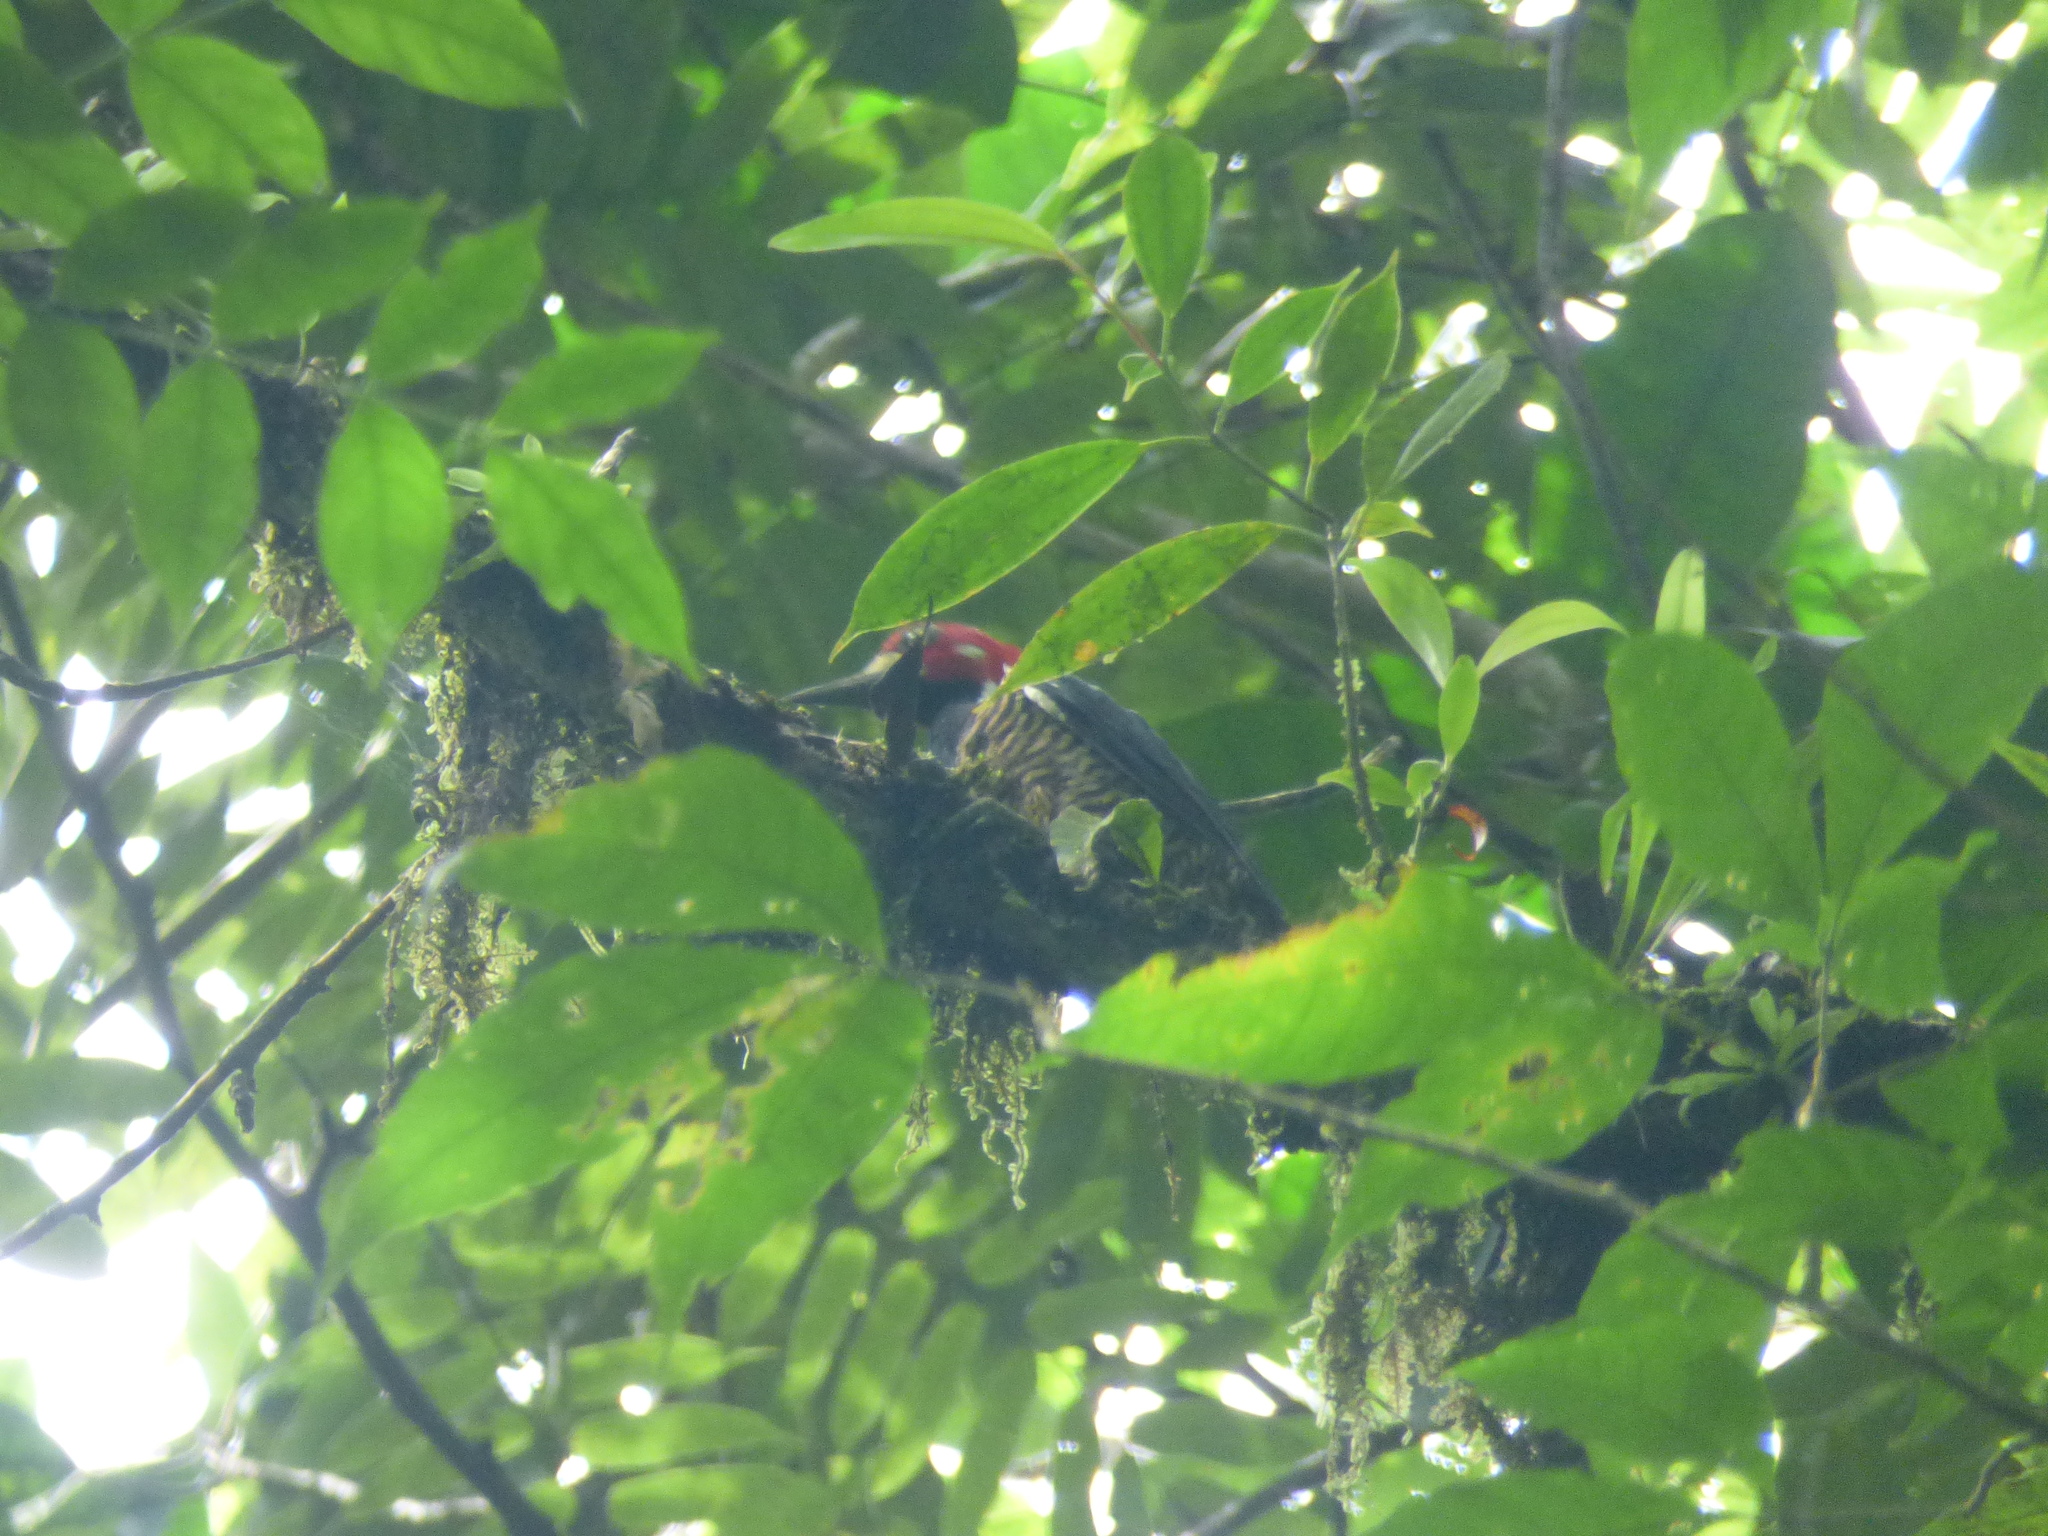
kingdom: Animalia
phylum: Chordata
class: Aves
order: Piciformes
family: Picidae
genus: Campephilus
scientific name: Campephilus melanoleucos
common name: Crimson-crested woodpecker
